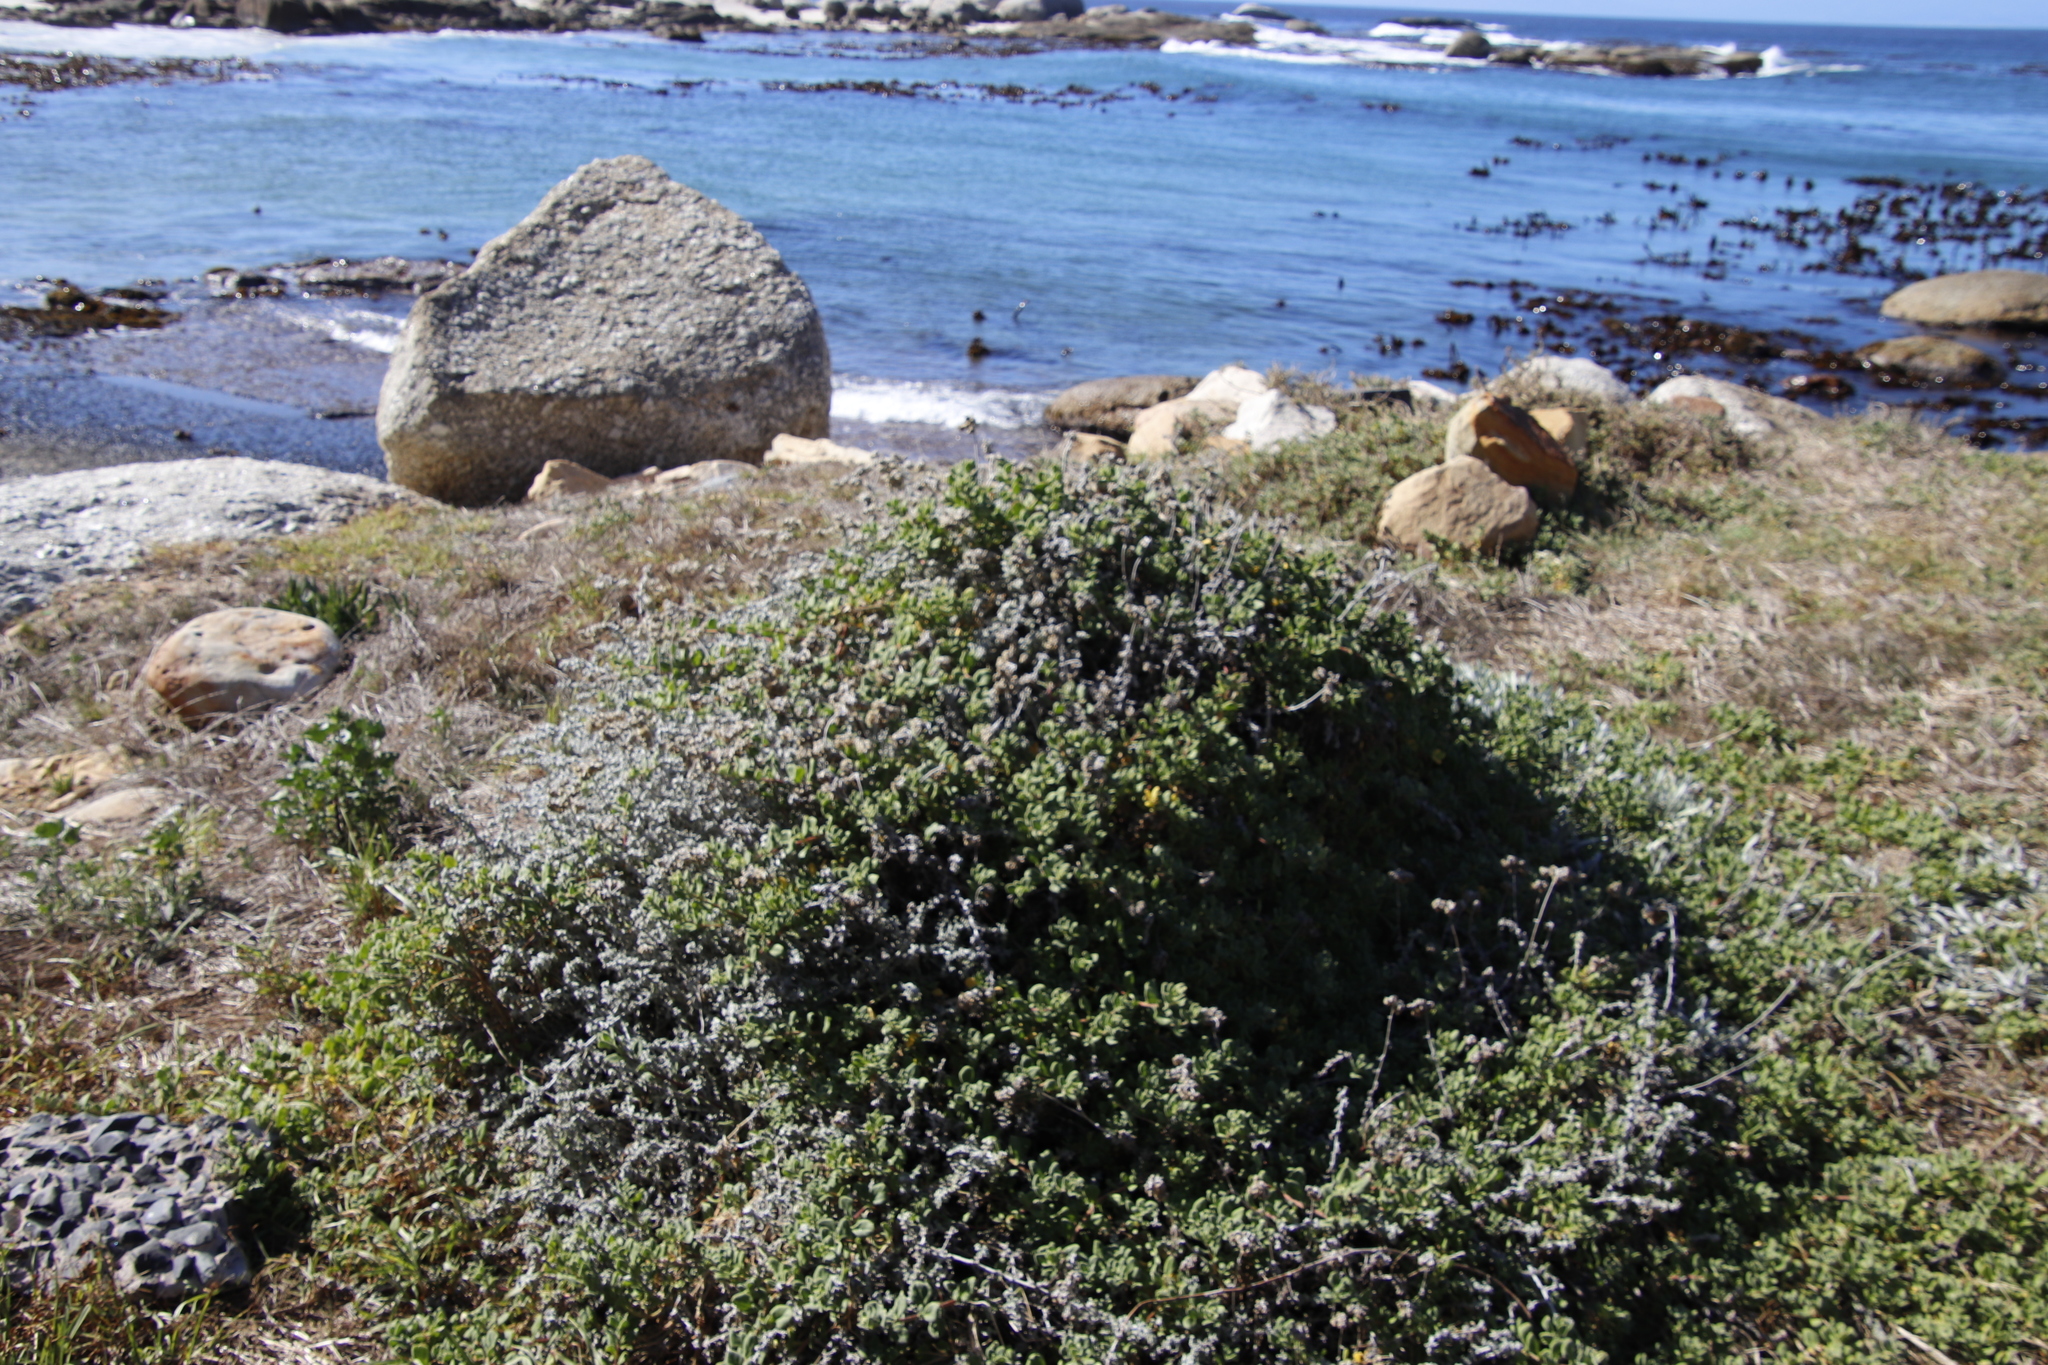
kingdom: Plantae
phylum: Tracheophyta
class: Magnoliopsida
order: Asterales
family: Asteraceae
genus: Helichrysum
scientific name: Helichrysum patulum
